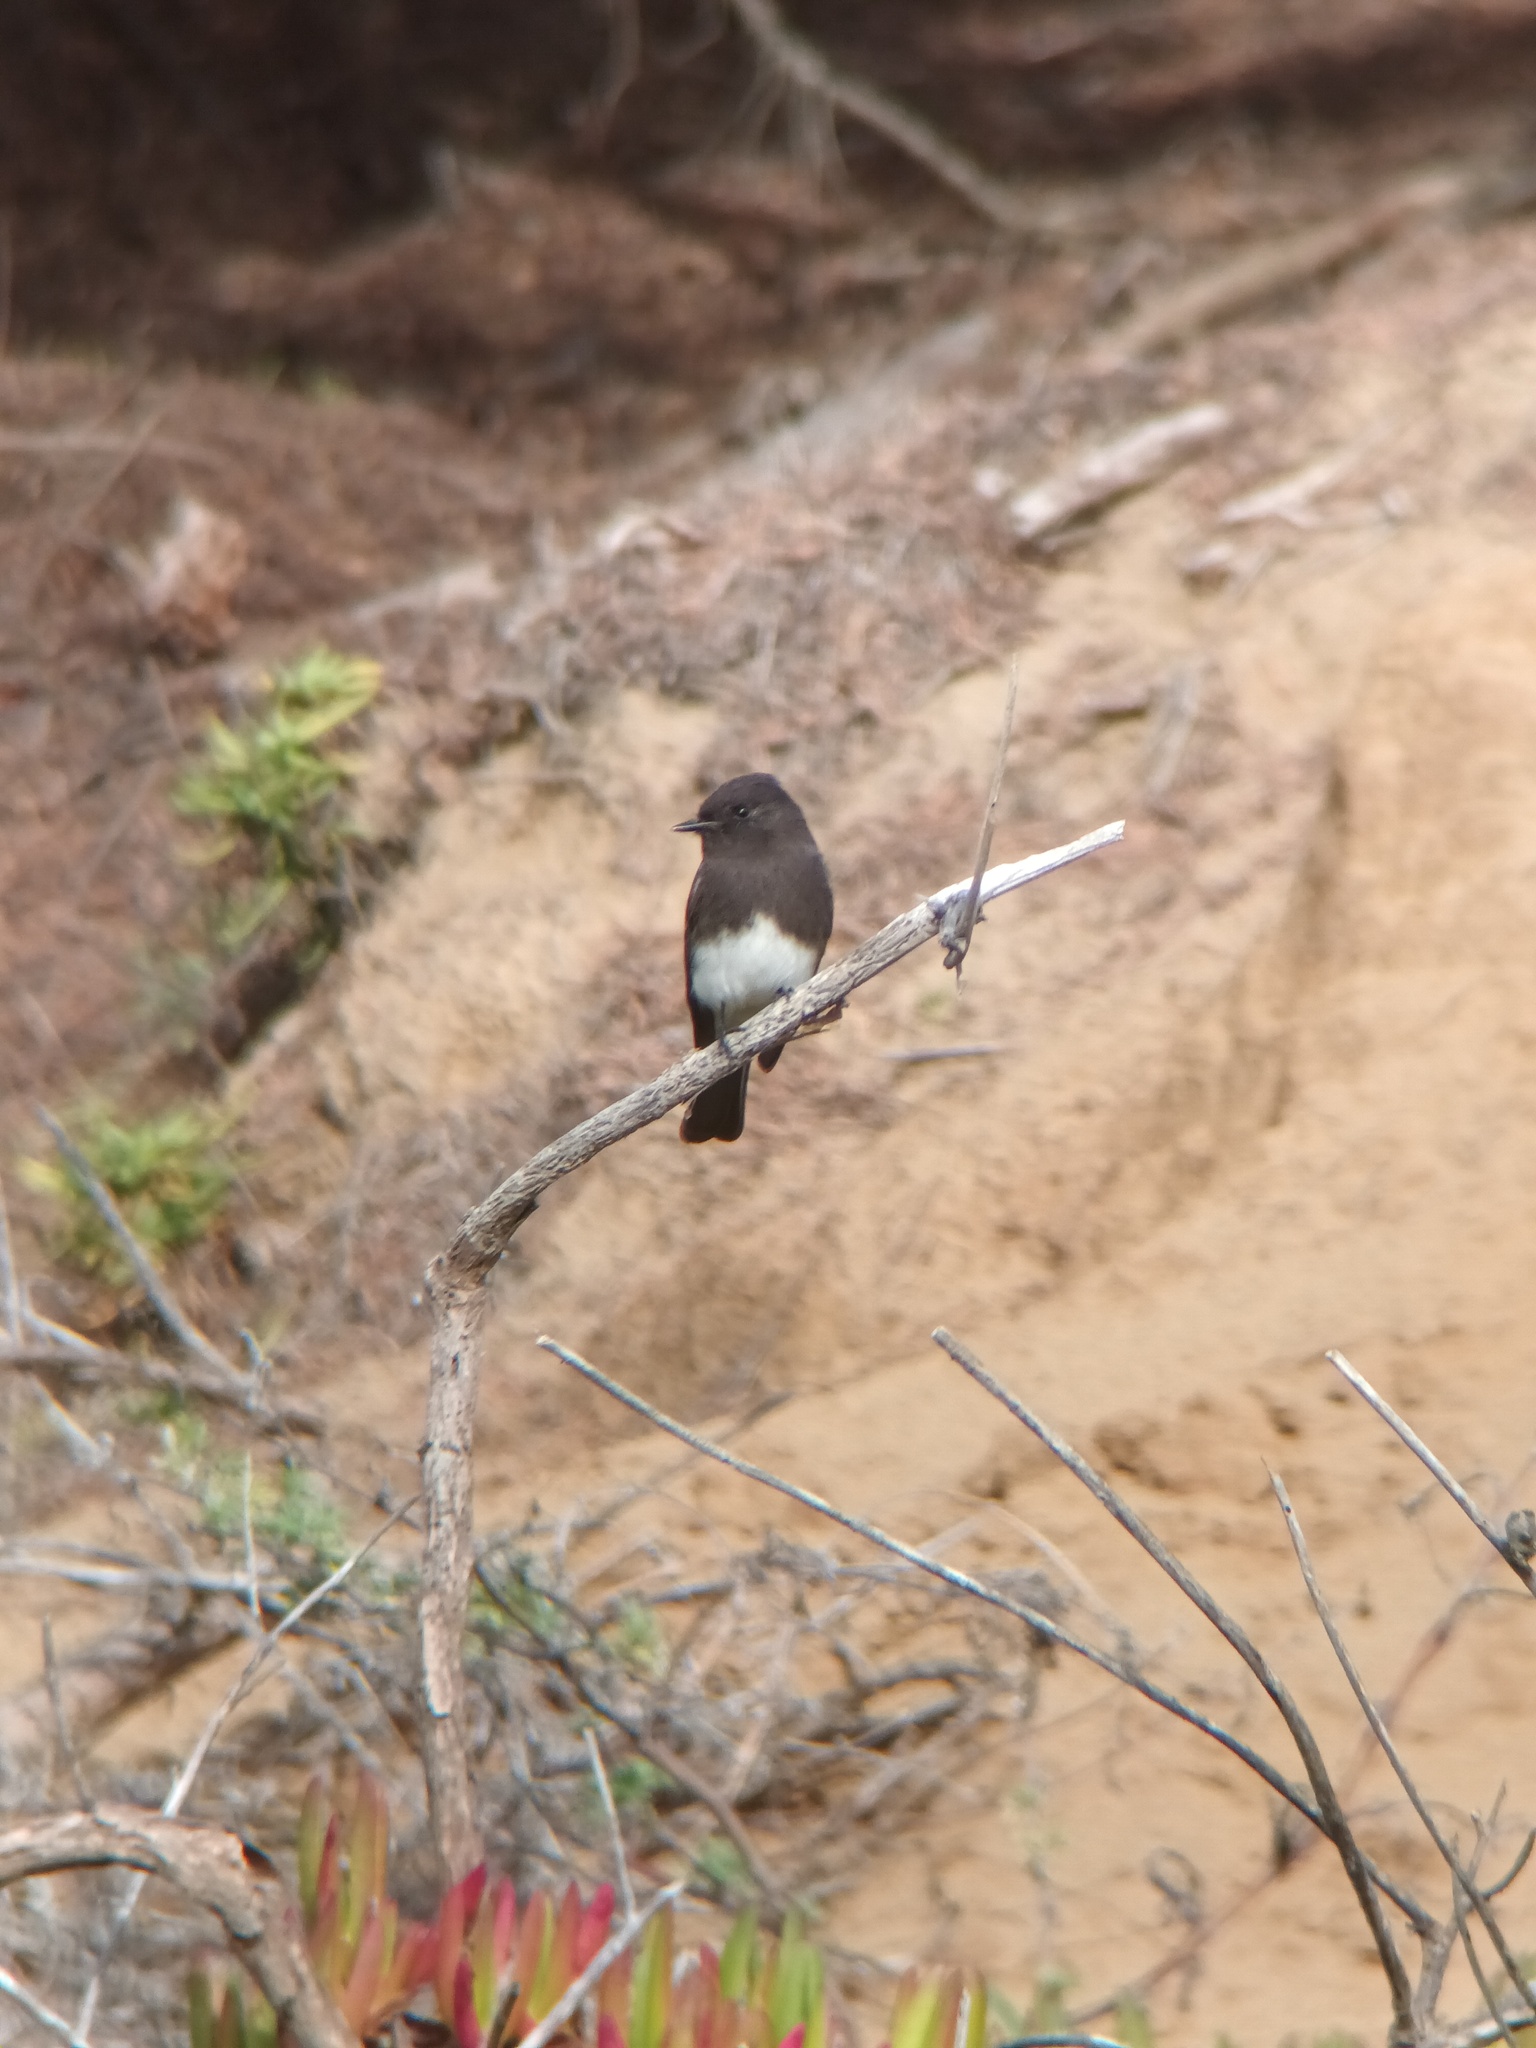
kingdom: Animalia
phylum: Chordata
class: Aves
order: Passeriformes
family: Tyrannidae
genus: Sayornis
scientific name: Sayornis nigricans
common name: Black phoebe
